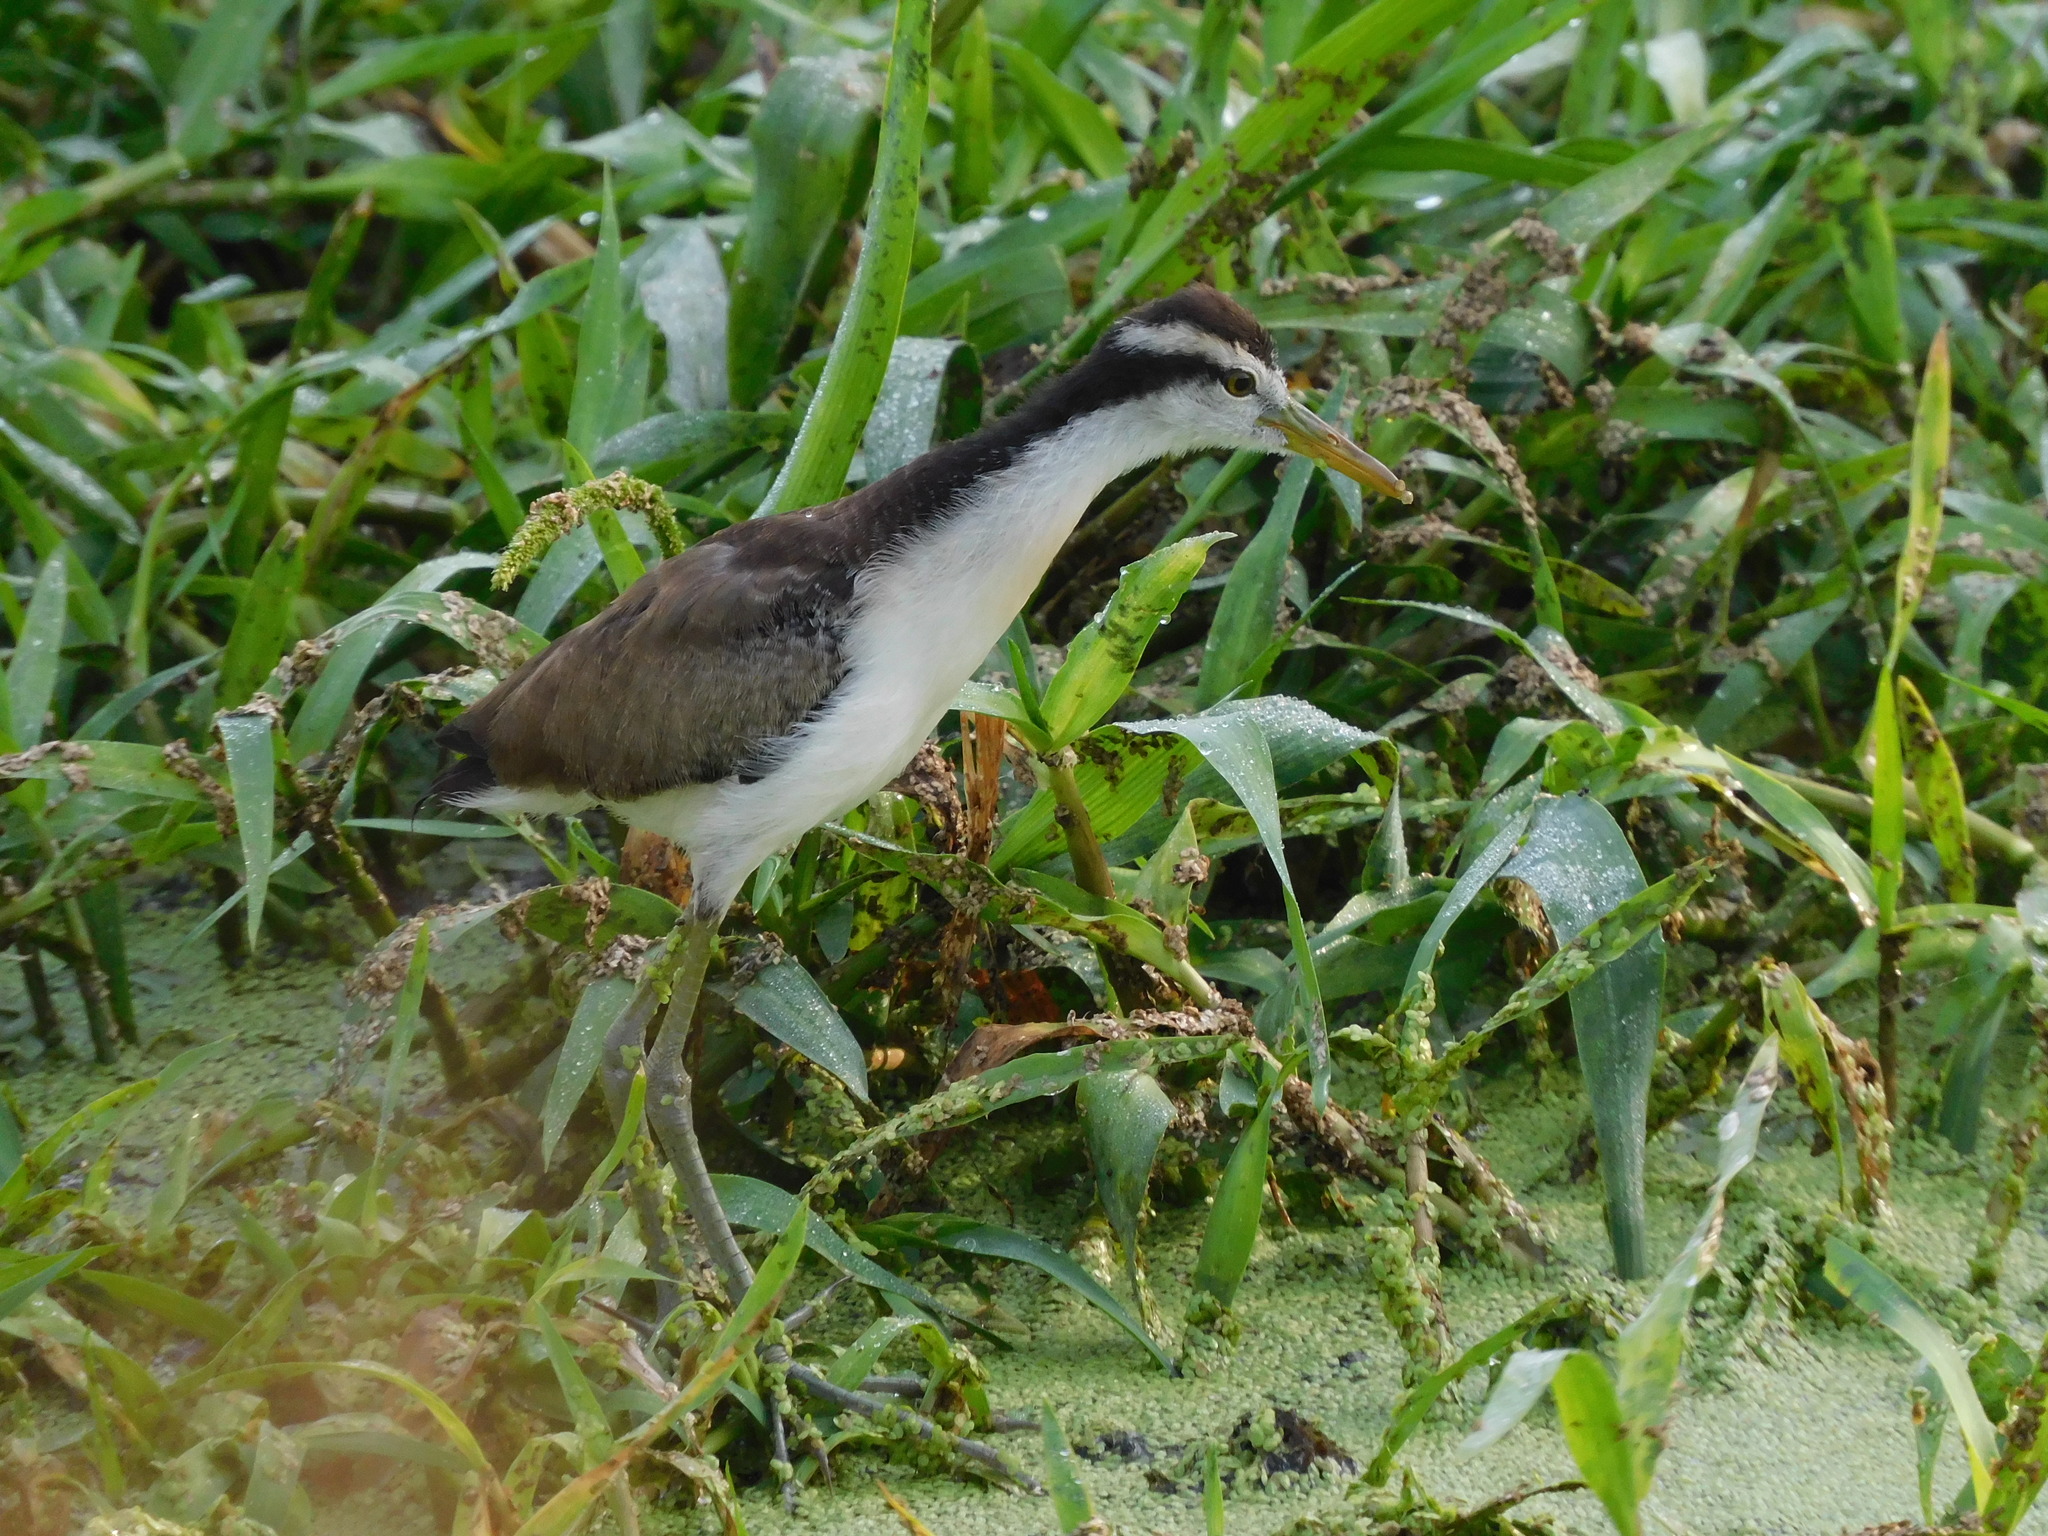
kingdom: Animalia
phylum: Chordata
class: Aves
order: Charadriiformes
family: Jacanidae
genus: Jacana
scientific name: Jacana jacana
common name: Wattled jacana
